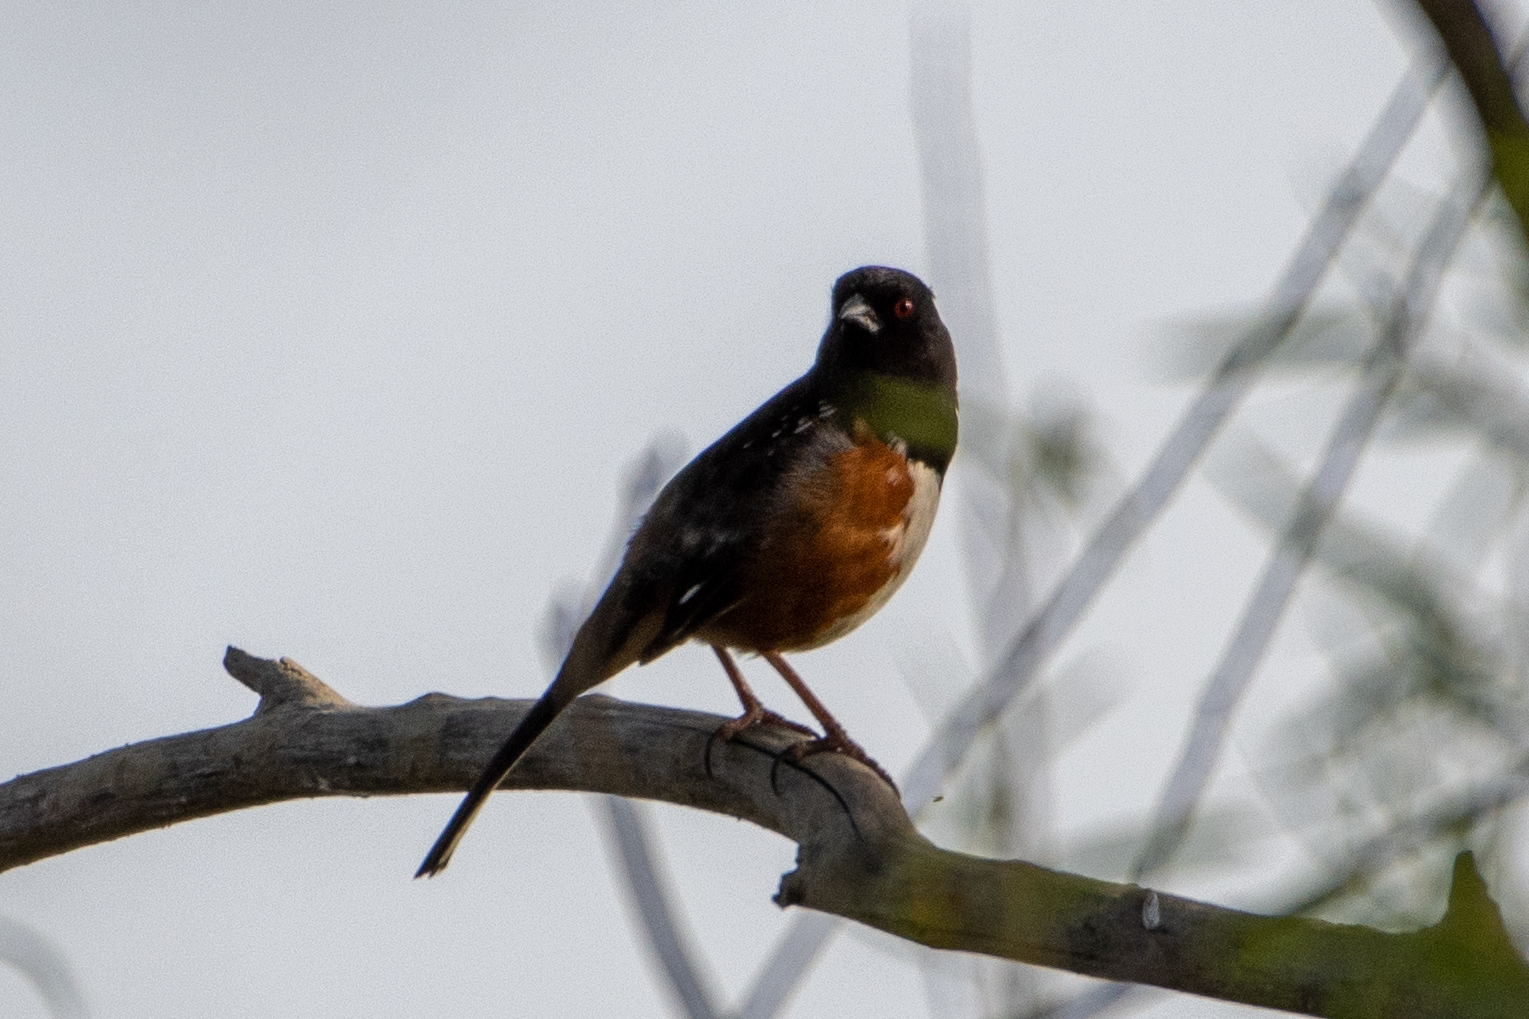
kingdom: Animalia
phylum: Chordata
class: Aves
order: Passeriformes
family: Passerellidae
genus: Pipilo
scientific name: Pipilo maculatus
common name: Spotted towhee
